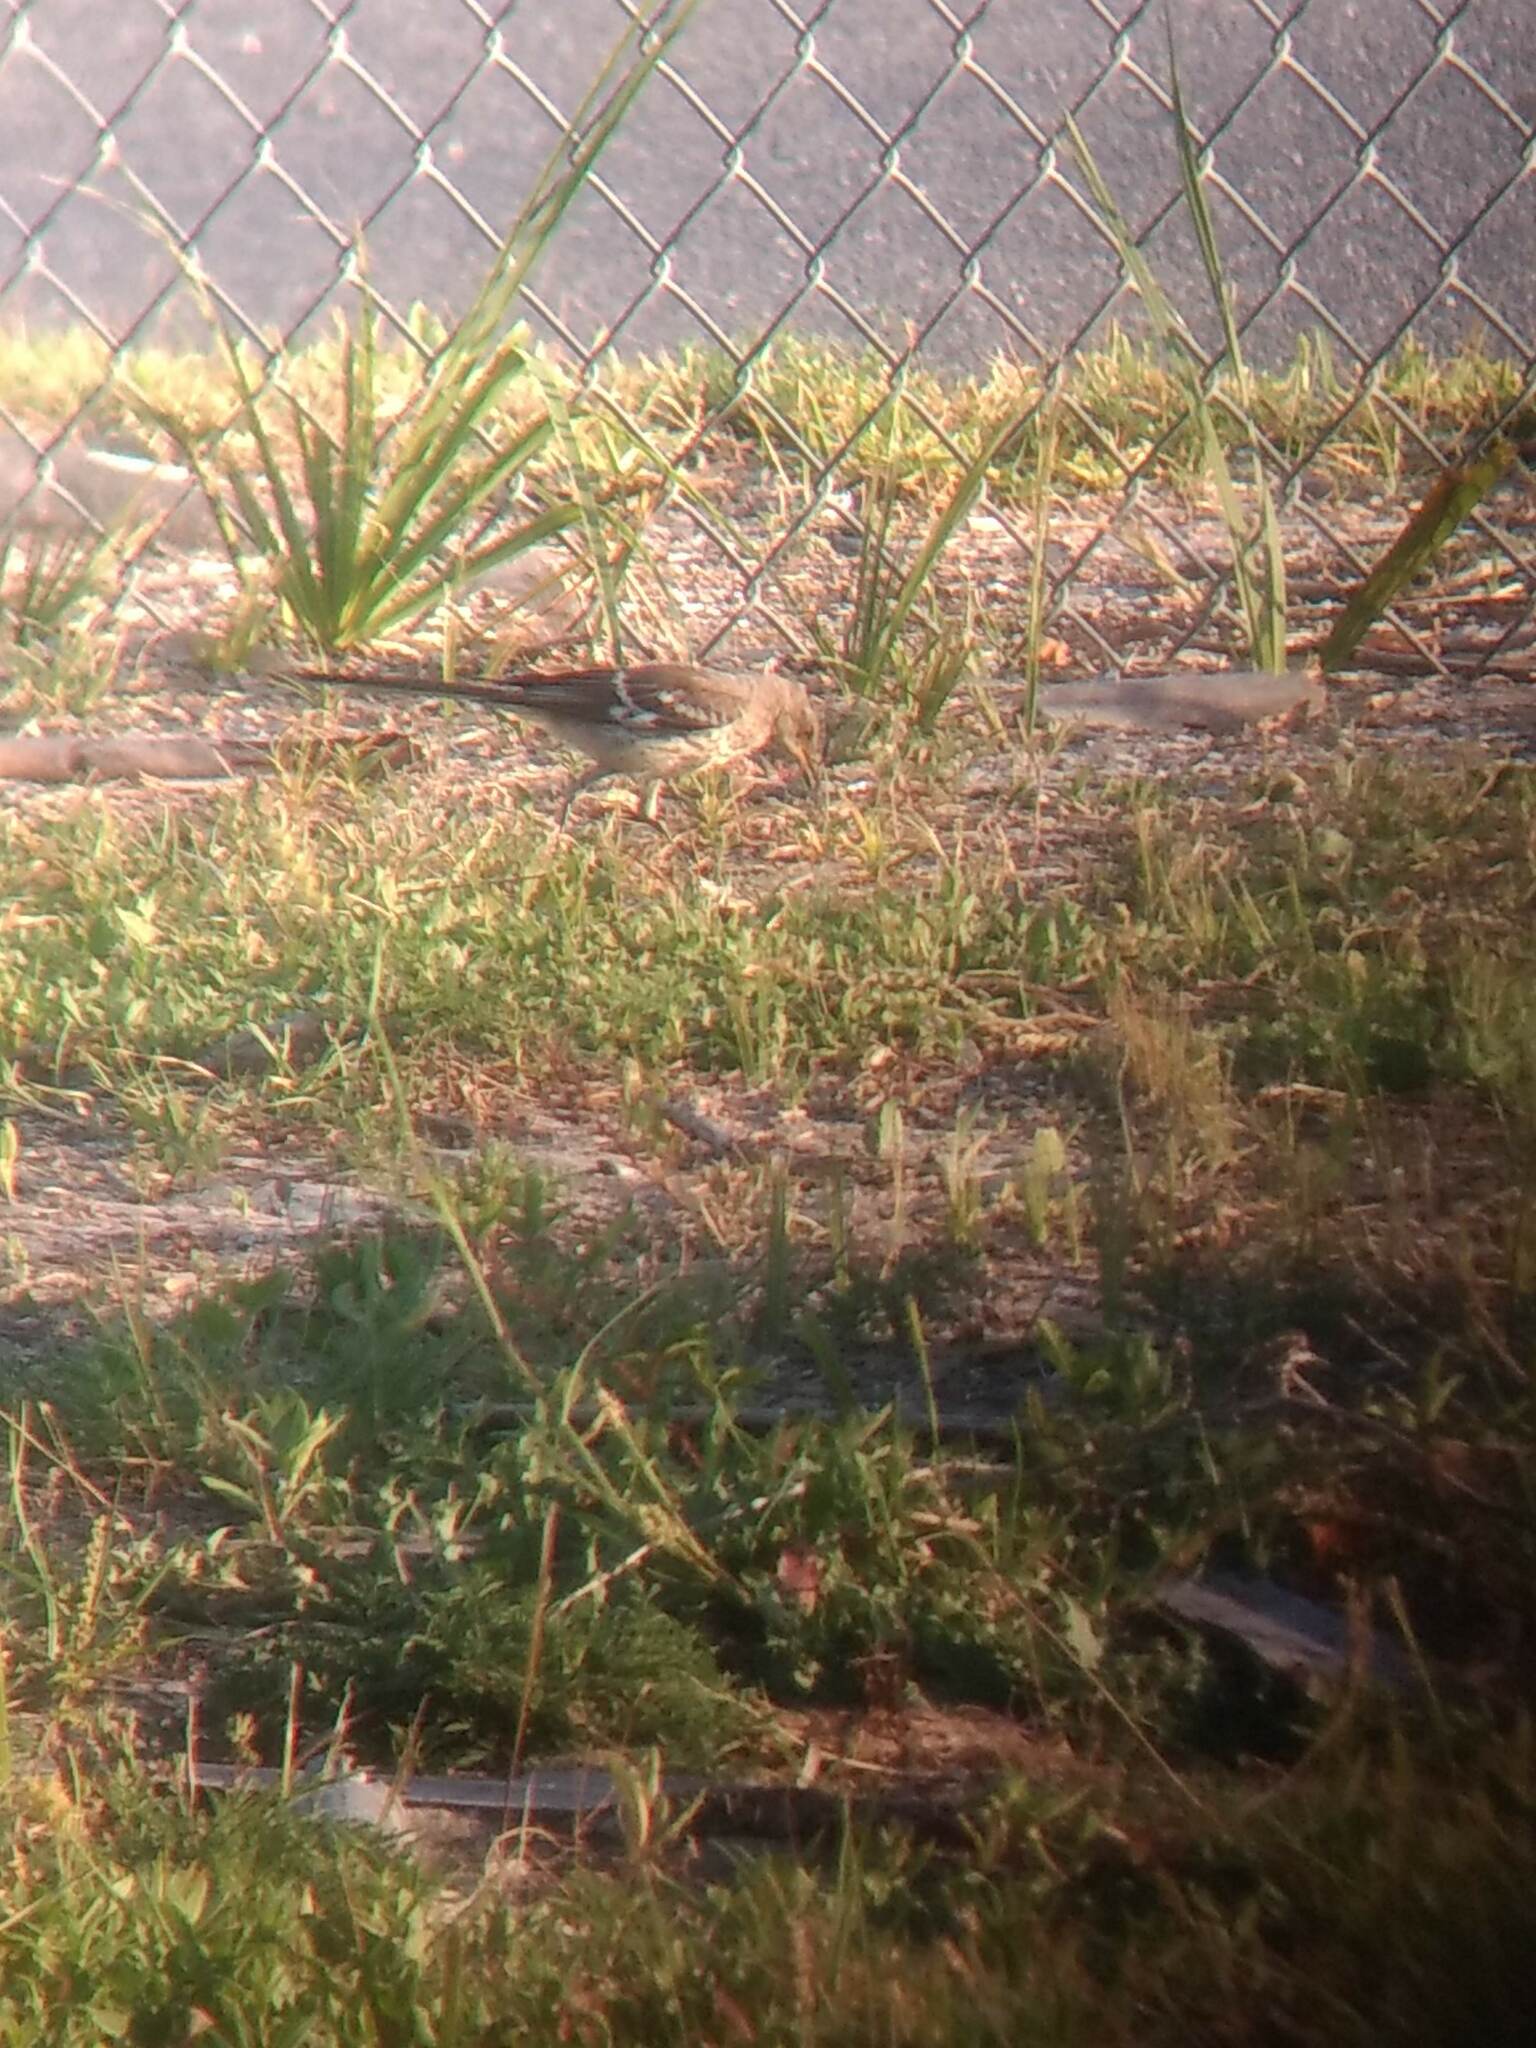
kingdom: Animalia
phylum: Chordata
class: Aves
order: Passeriformes
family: Mimidae
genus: Mimus
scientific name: Mimus polyglottos
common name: Northern mockingbird
